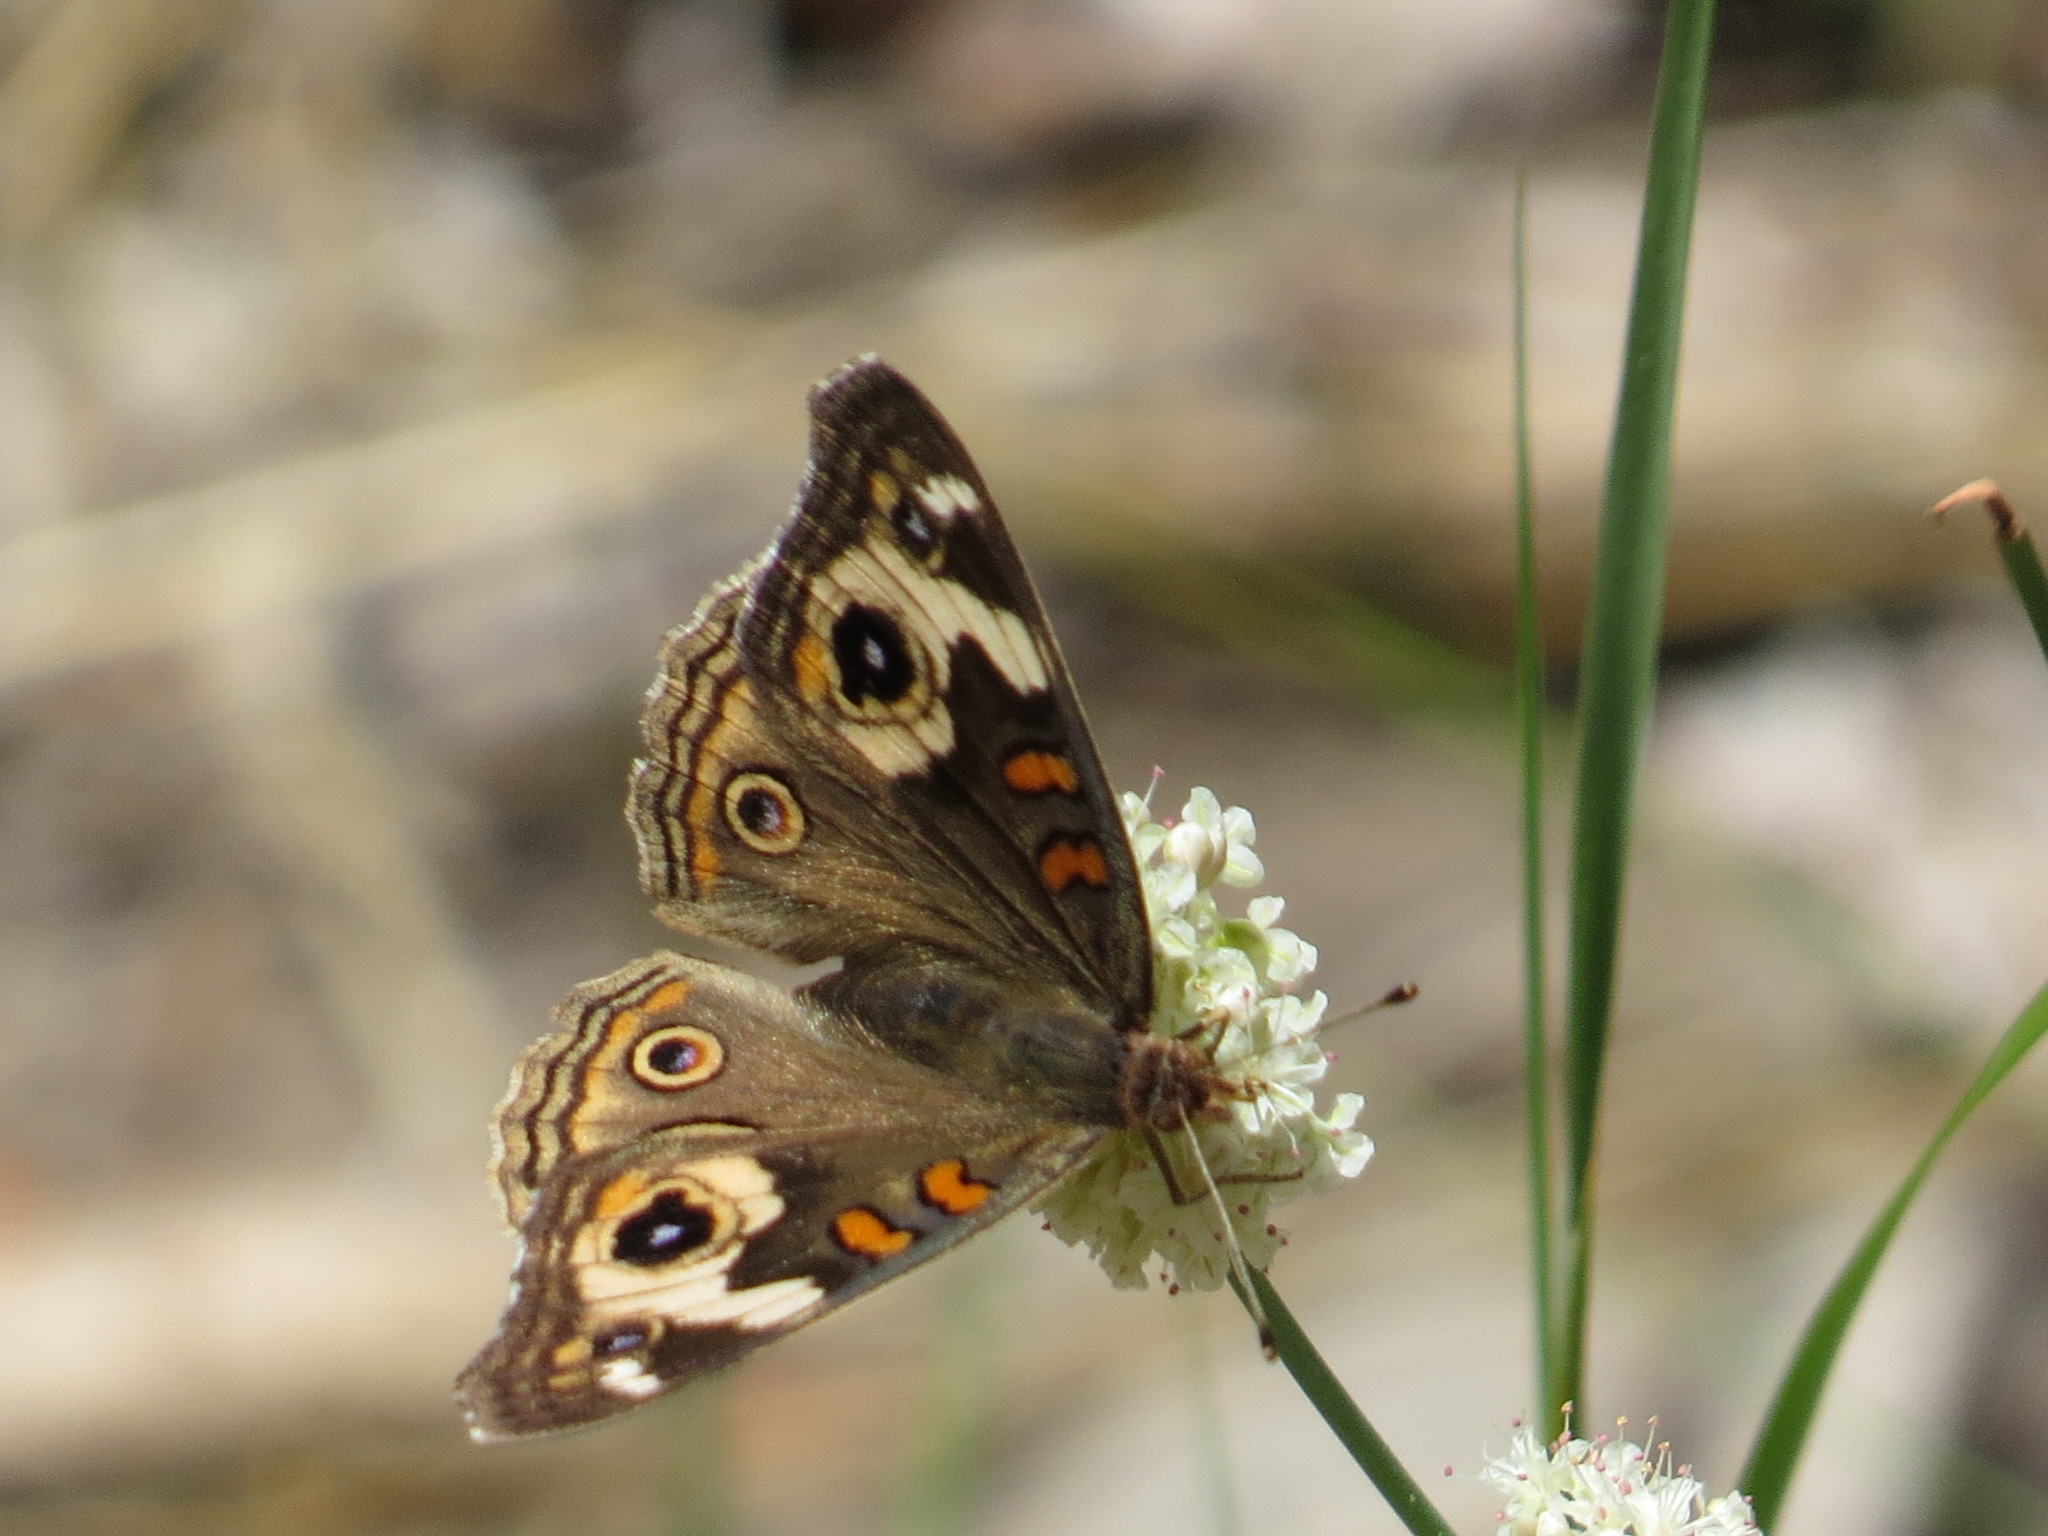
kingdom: Animalia
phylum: Arthropoda
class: Insecta
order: Lepidoptera
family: Nymphalidae
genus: Junonia
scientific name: Junonia grisea
